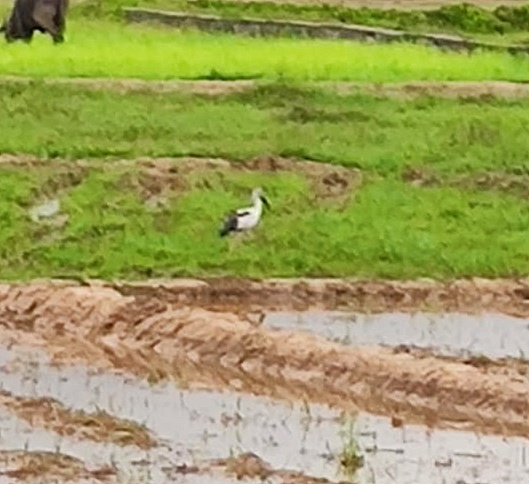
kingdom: Animalia
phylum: Chordata
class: Aves
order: Ciconiiformes
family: Ciconiidae
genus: Anastomus
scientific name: Anastomus oscitans
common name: Asian openbill
